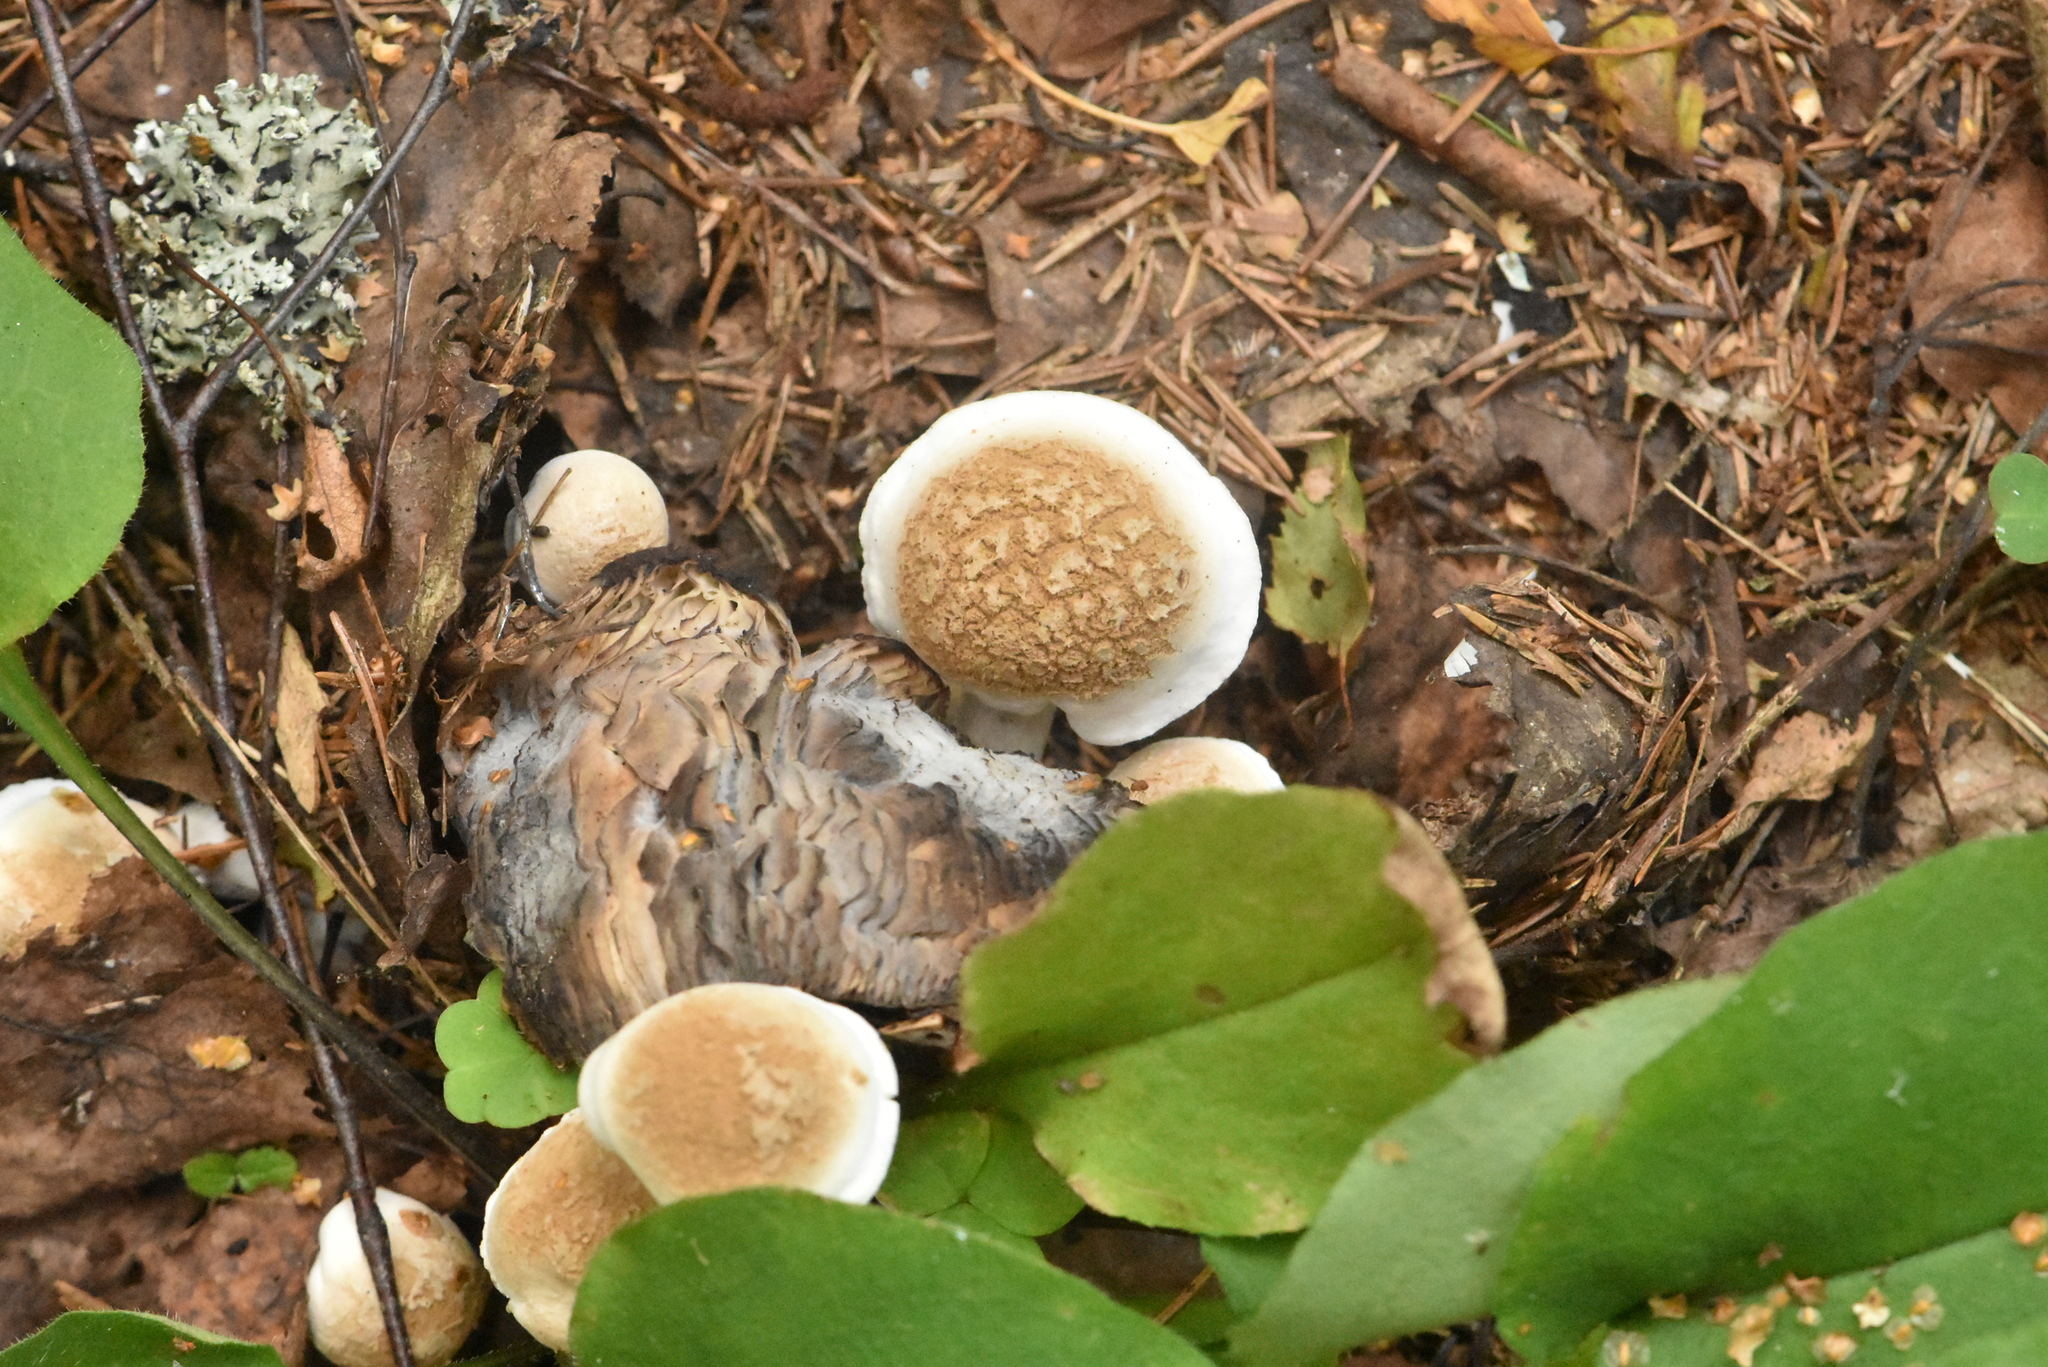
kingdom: Fungi
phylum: Basidiomycota
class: Agaricomycetes
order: Agaricales
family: Lyophyllaceae
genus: Asterophora
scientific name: Asterophora lycoperdoides
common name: Pick-a-back toadstool
